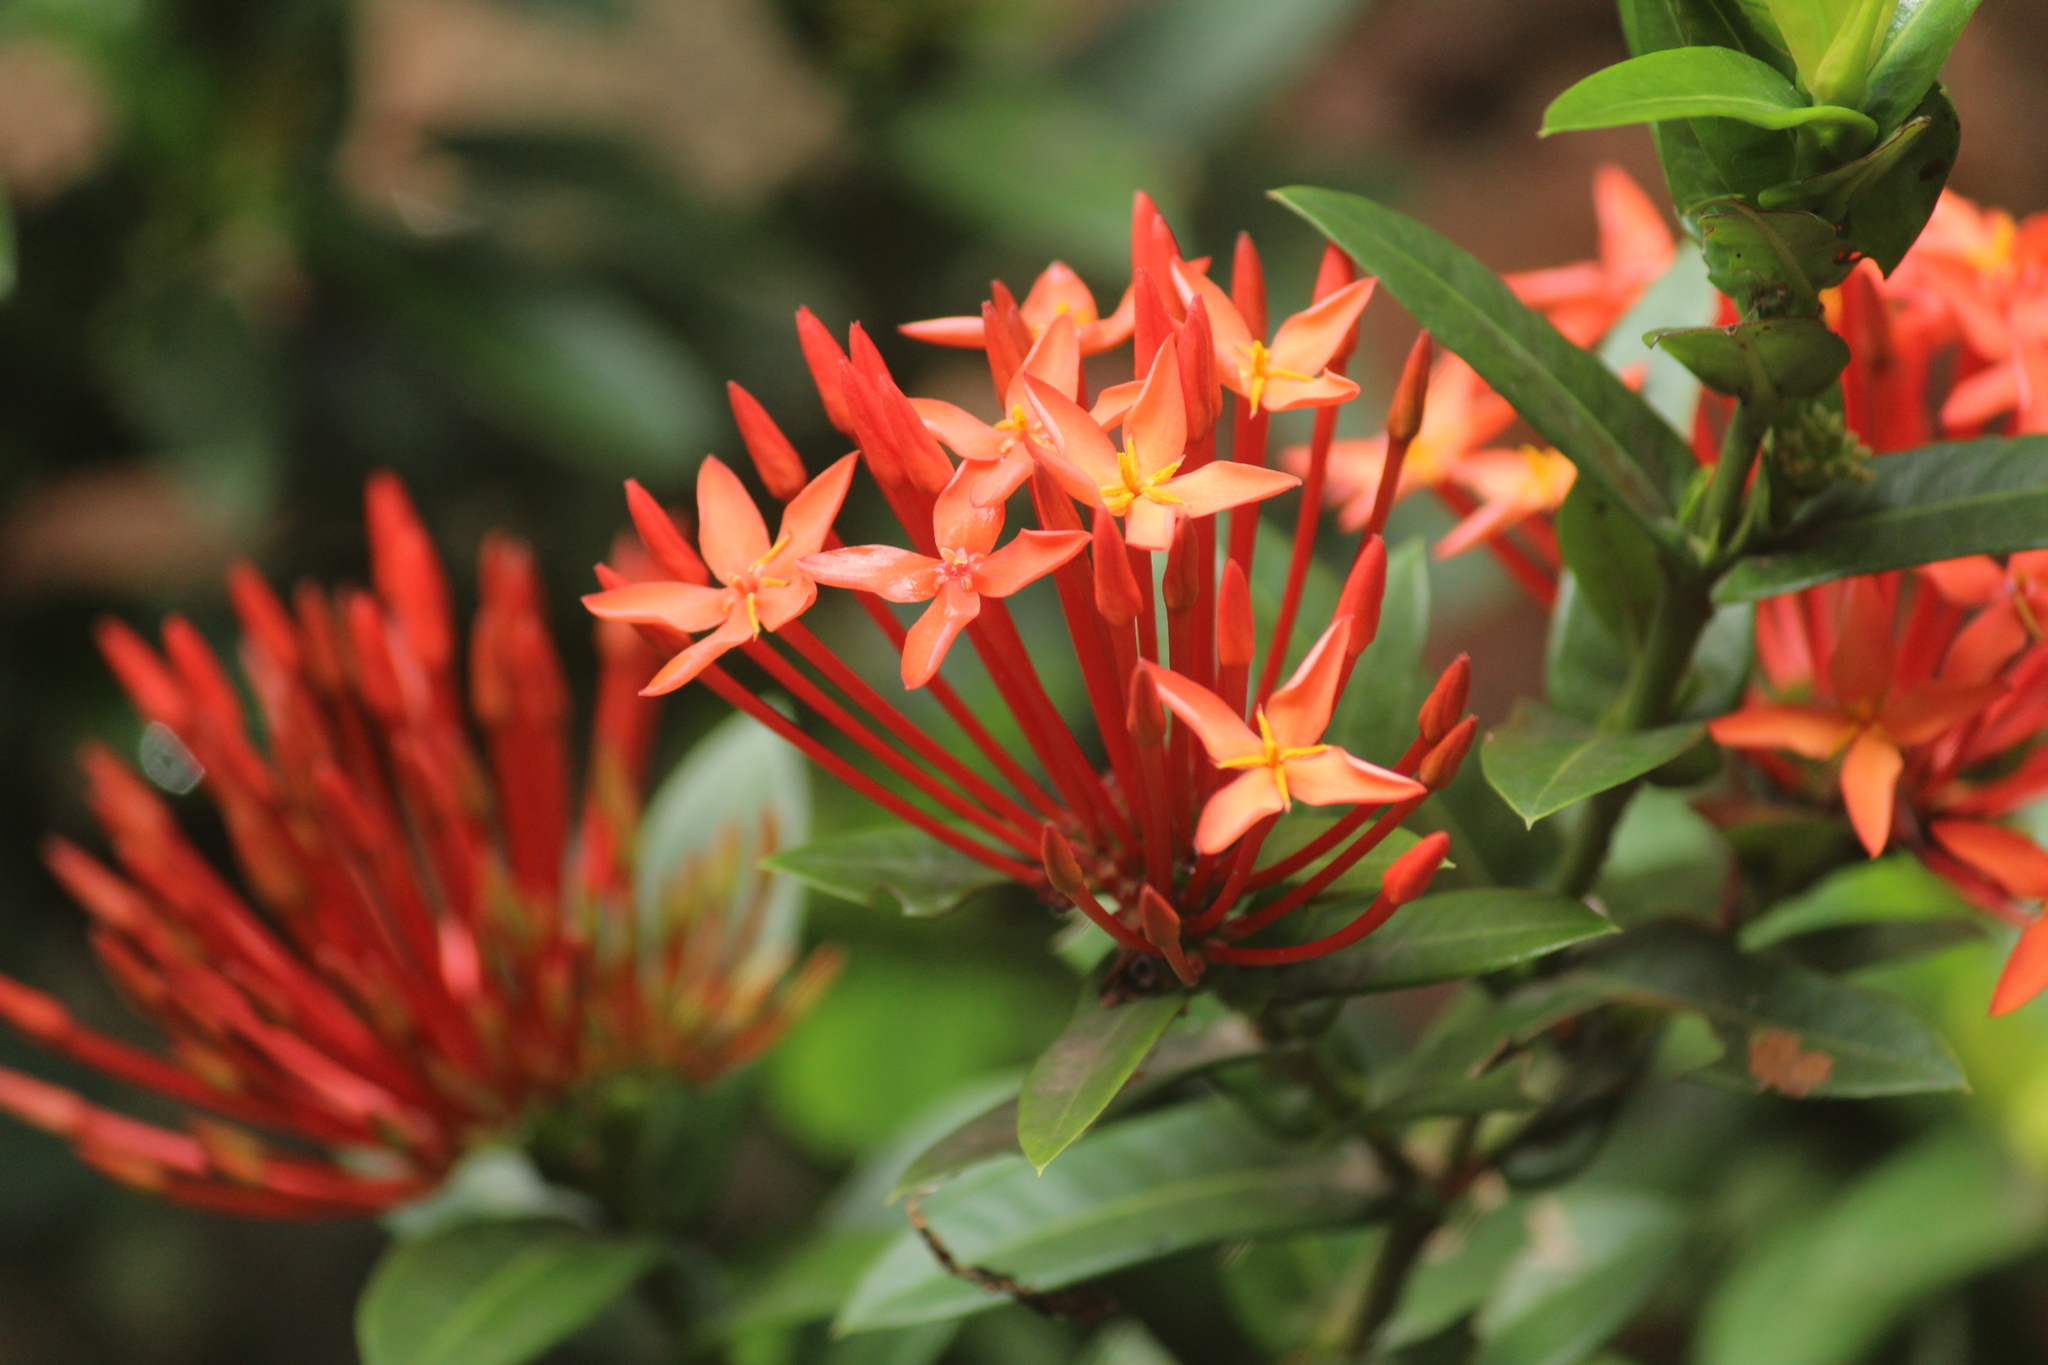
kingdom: Plantae
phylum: Tracheophyta
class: Magnoliopsida
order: Gentianales
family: Rubiaceae
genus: Ixora
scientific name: Ixora coccinea
